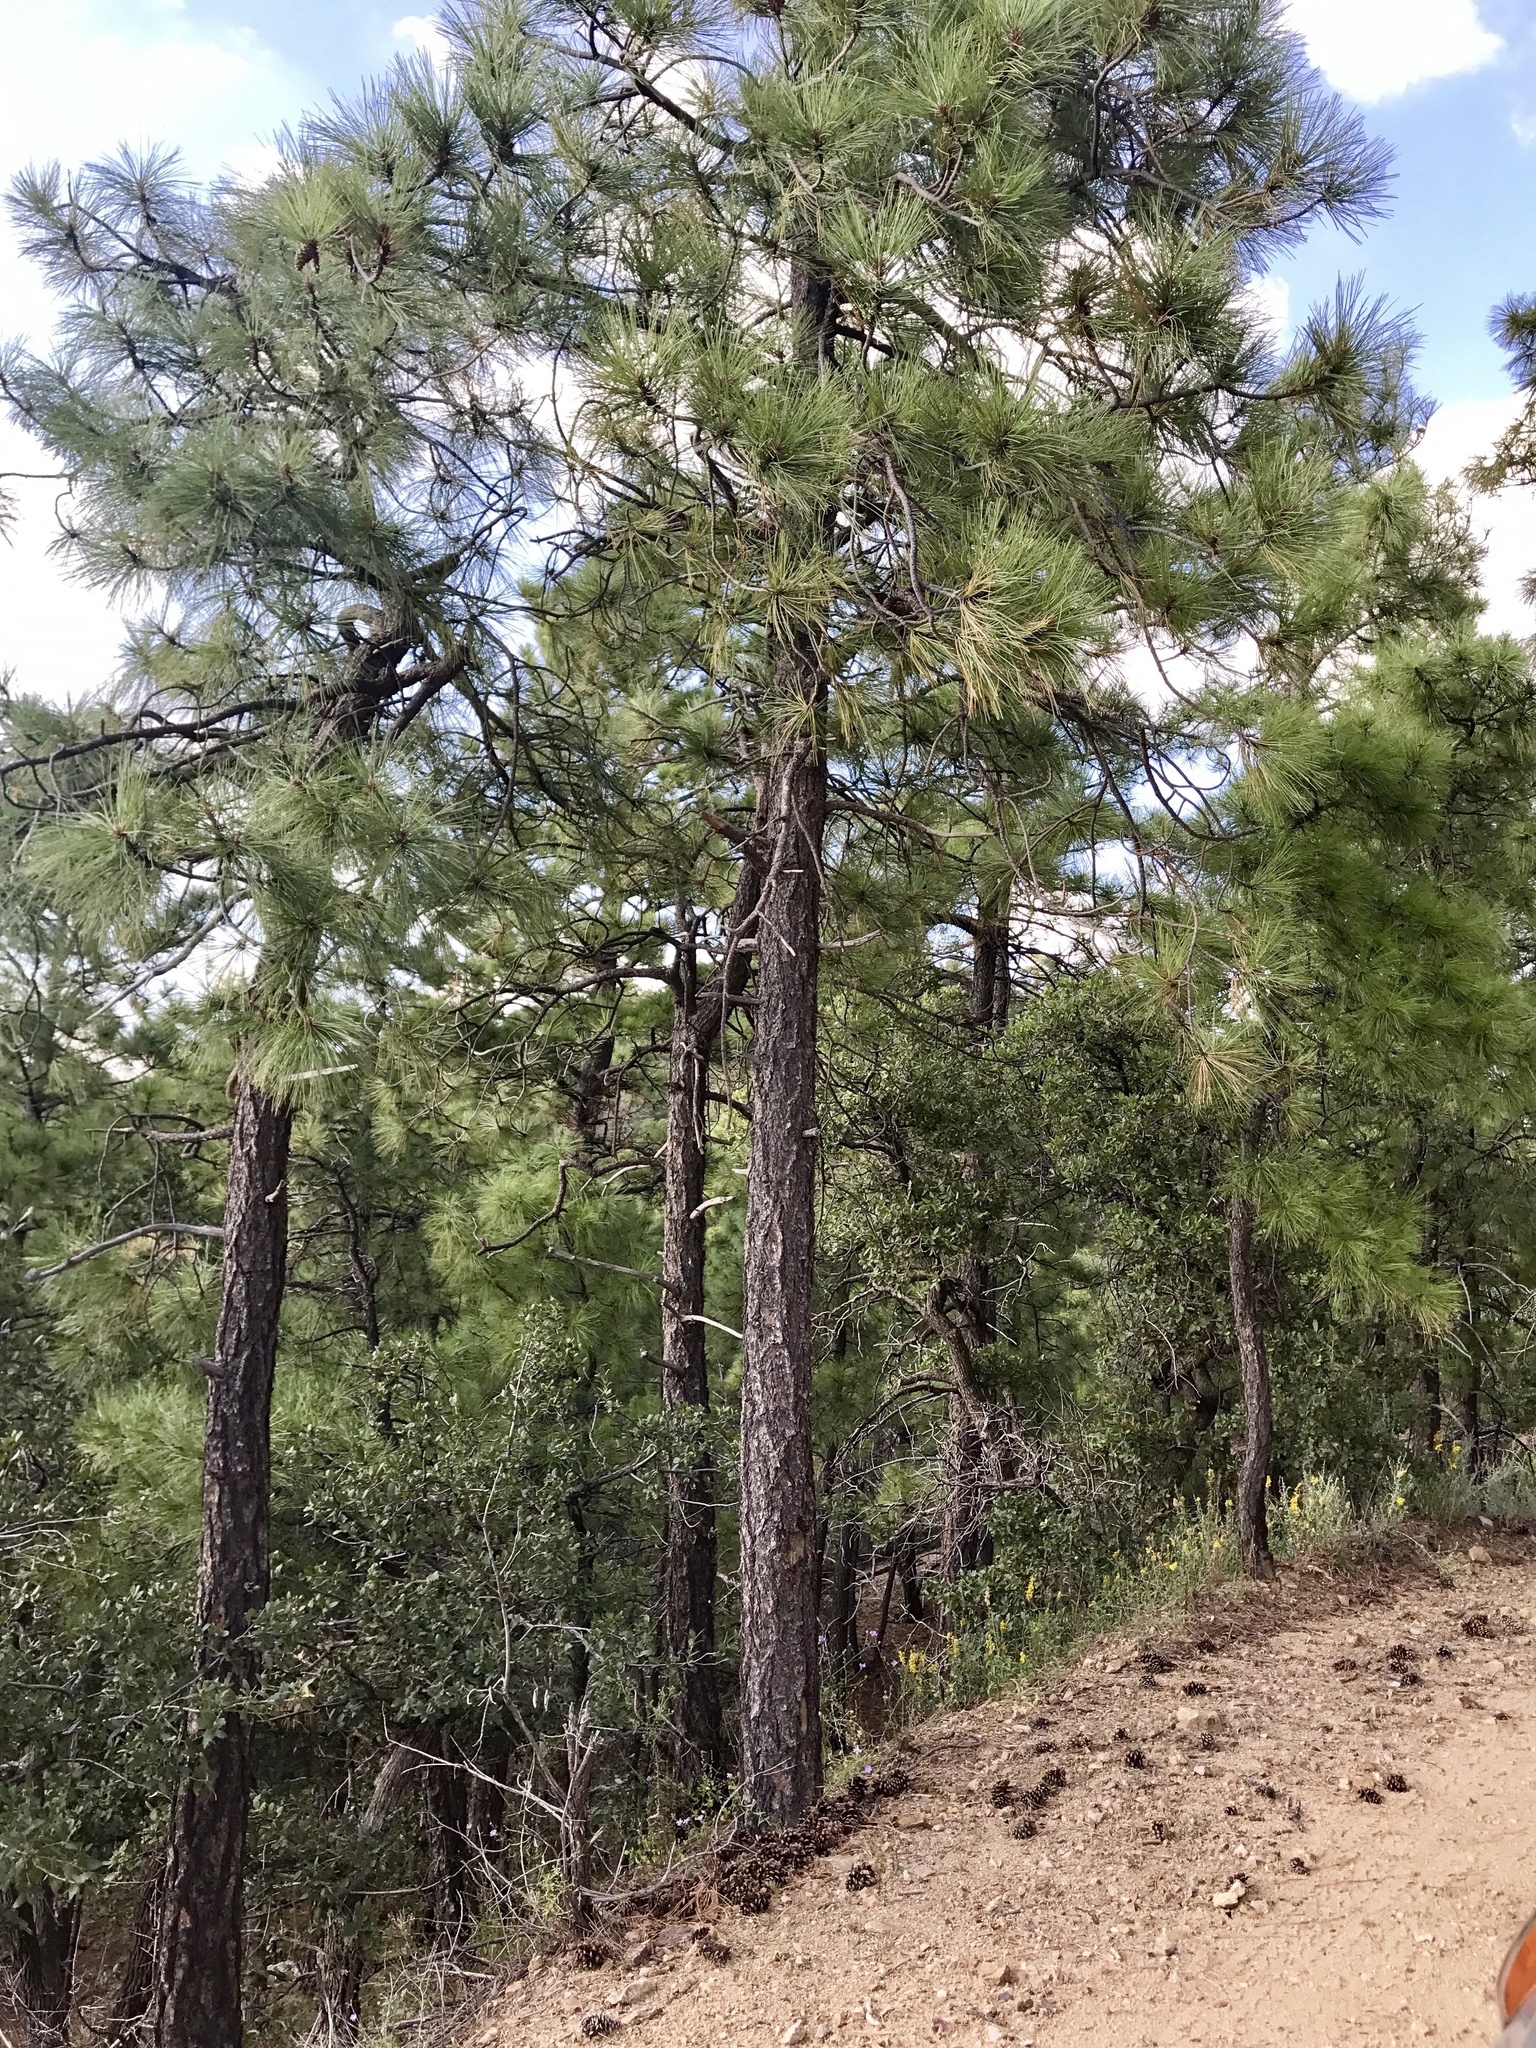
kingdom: Plantae
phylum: Tracheophyta
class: Pinopsida
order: Pinales
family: Pinaceae
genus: Pinus
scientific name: Pinus ponderosa
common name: Western yellow-pine
